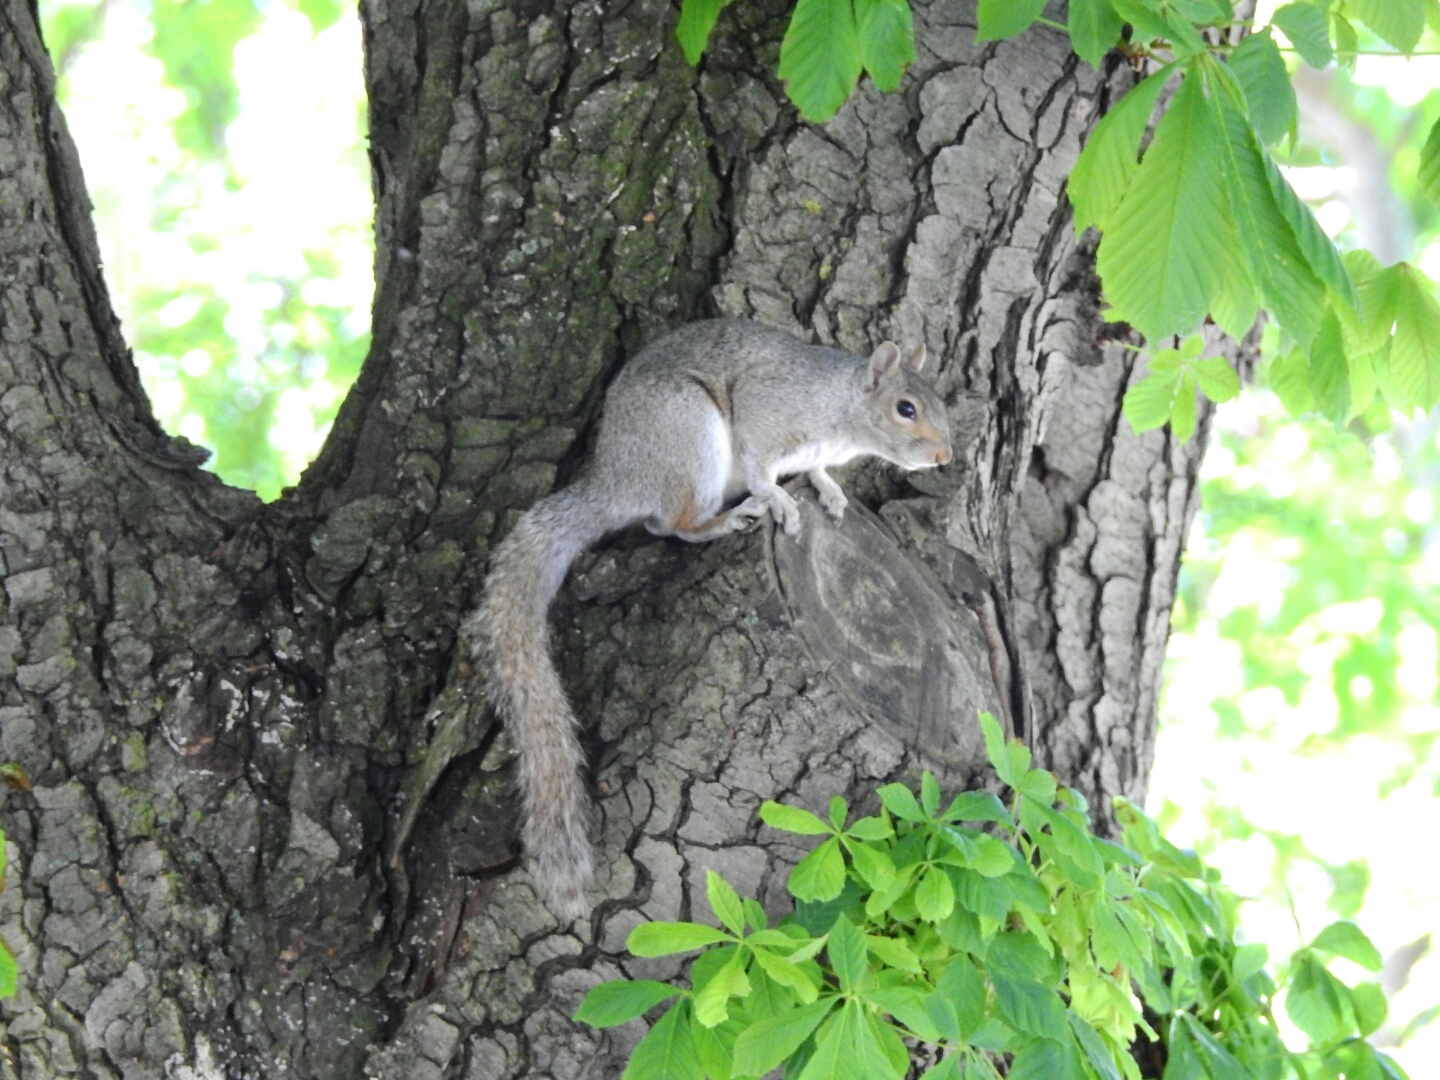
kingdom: Animalia
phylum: Chordata
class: Mammalia
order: Rodentia
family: Sciuridae
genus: Sciurus
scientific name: Sciurus carolinensis
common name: Eastern gray squirrel
